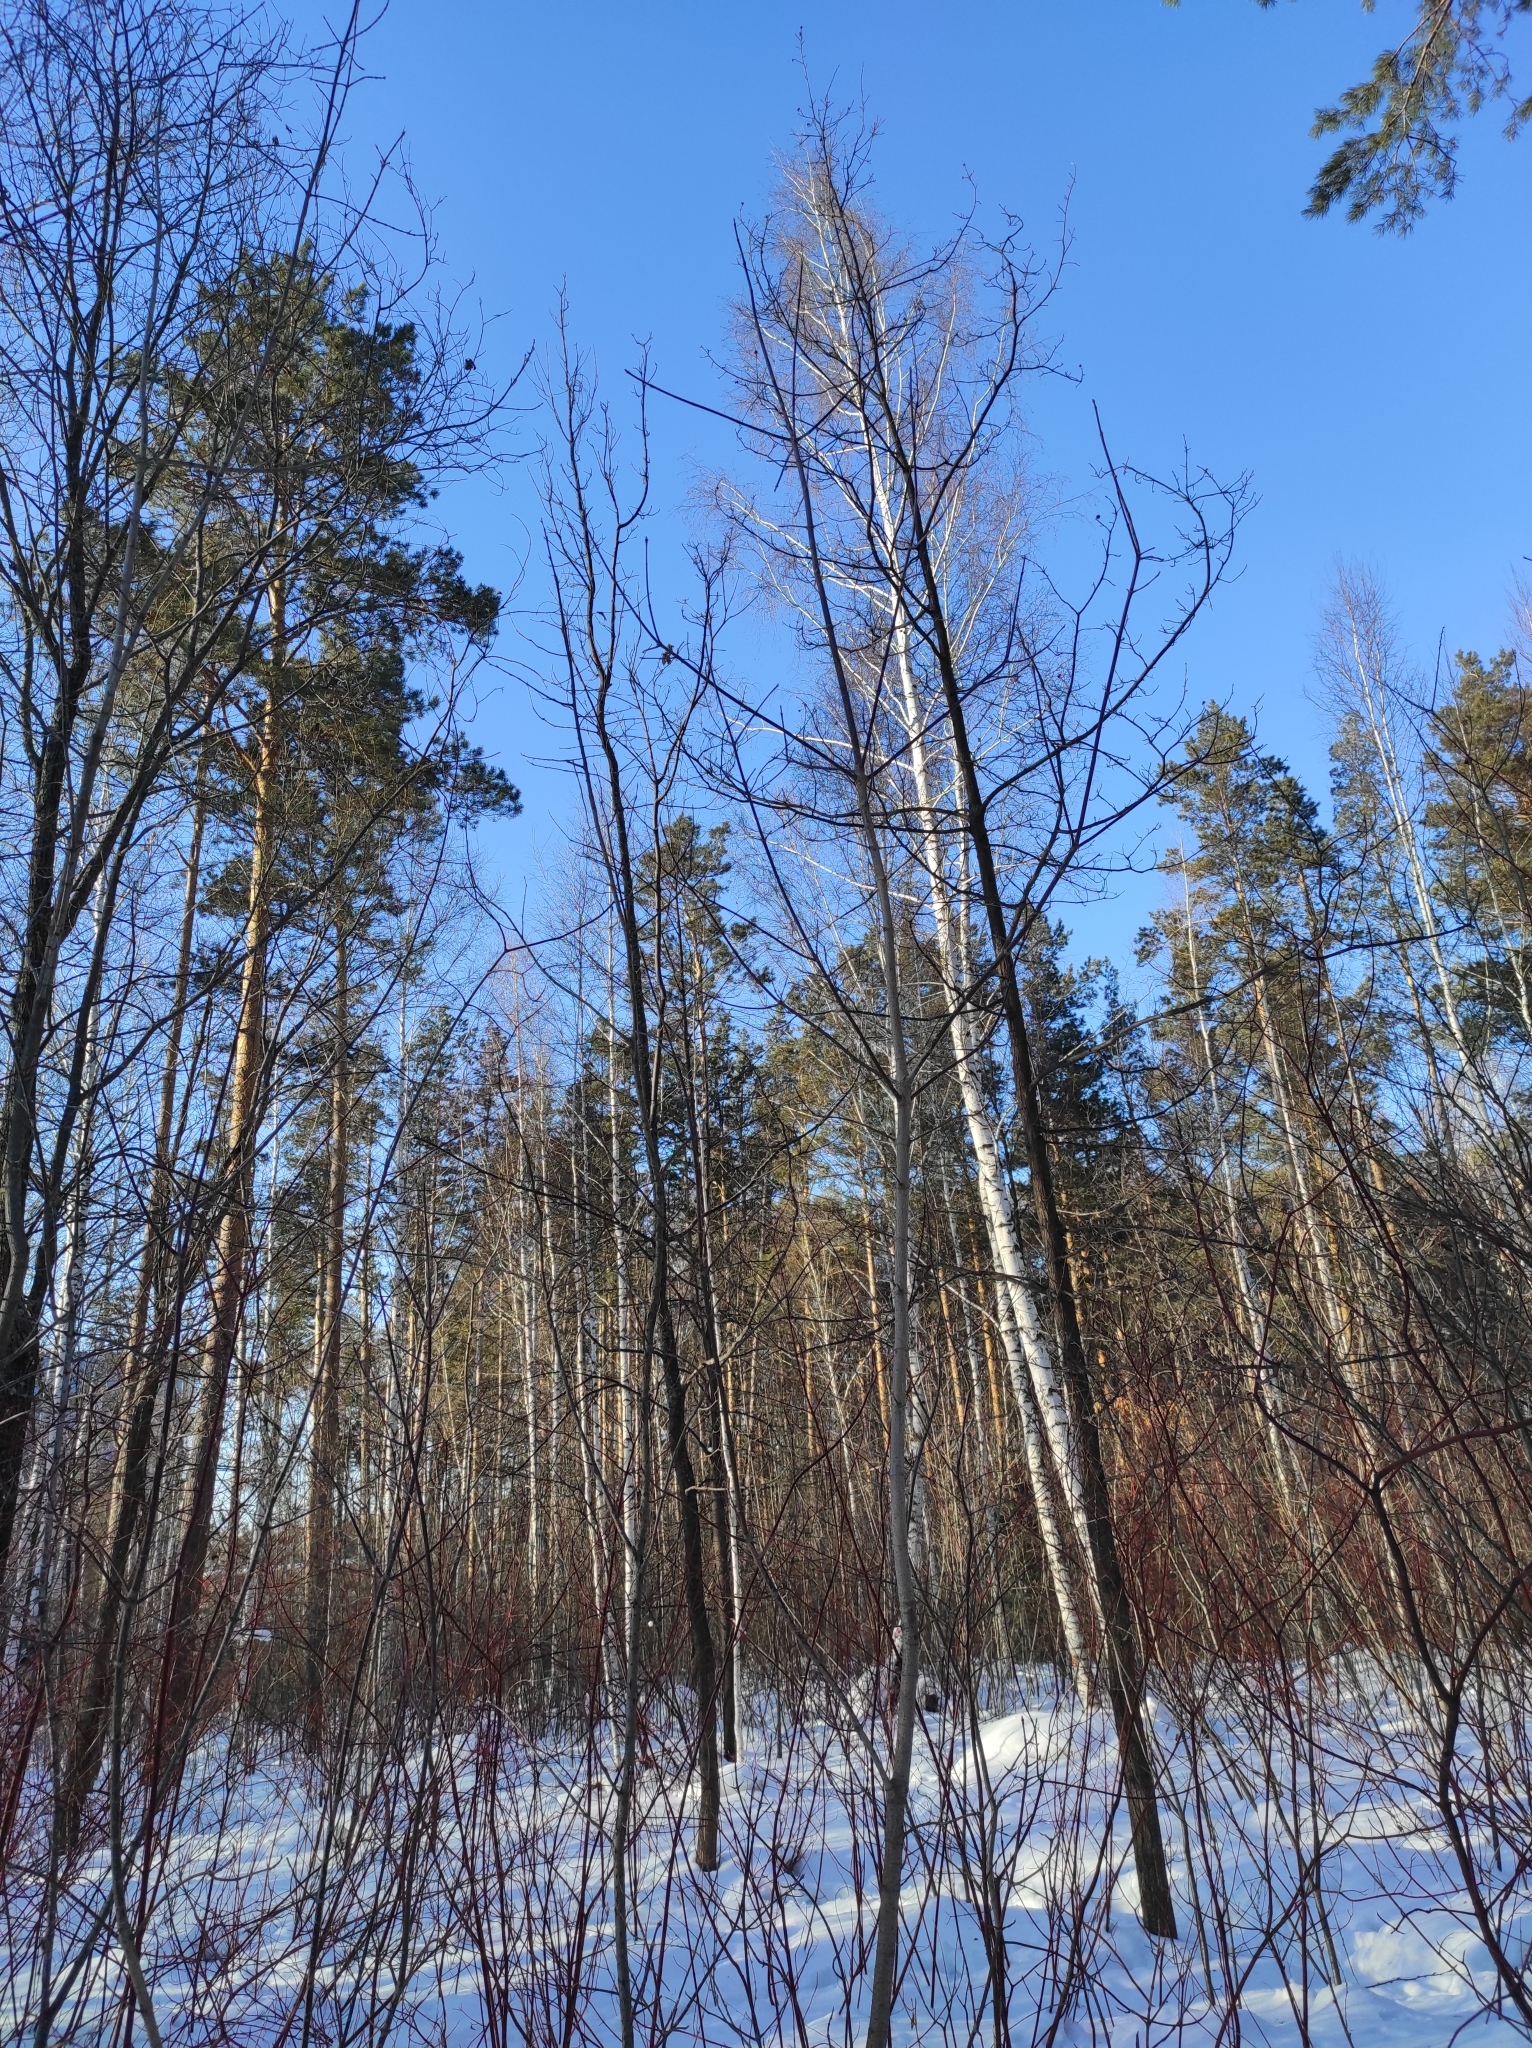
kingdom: Fungi
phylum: Basidiomycota
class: Agaricomycetes
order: Hymenochaetales
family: Hymenochaetaceae
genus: Inonotus
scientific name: Inonotus obliquus
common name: Chaga
